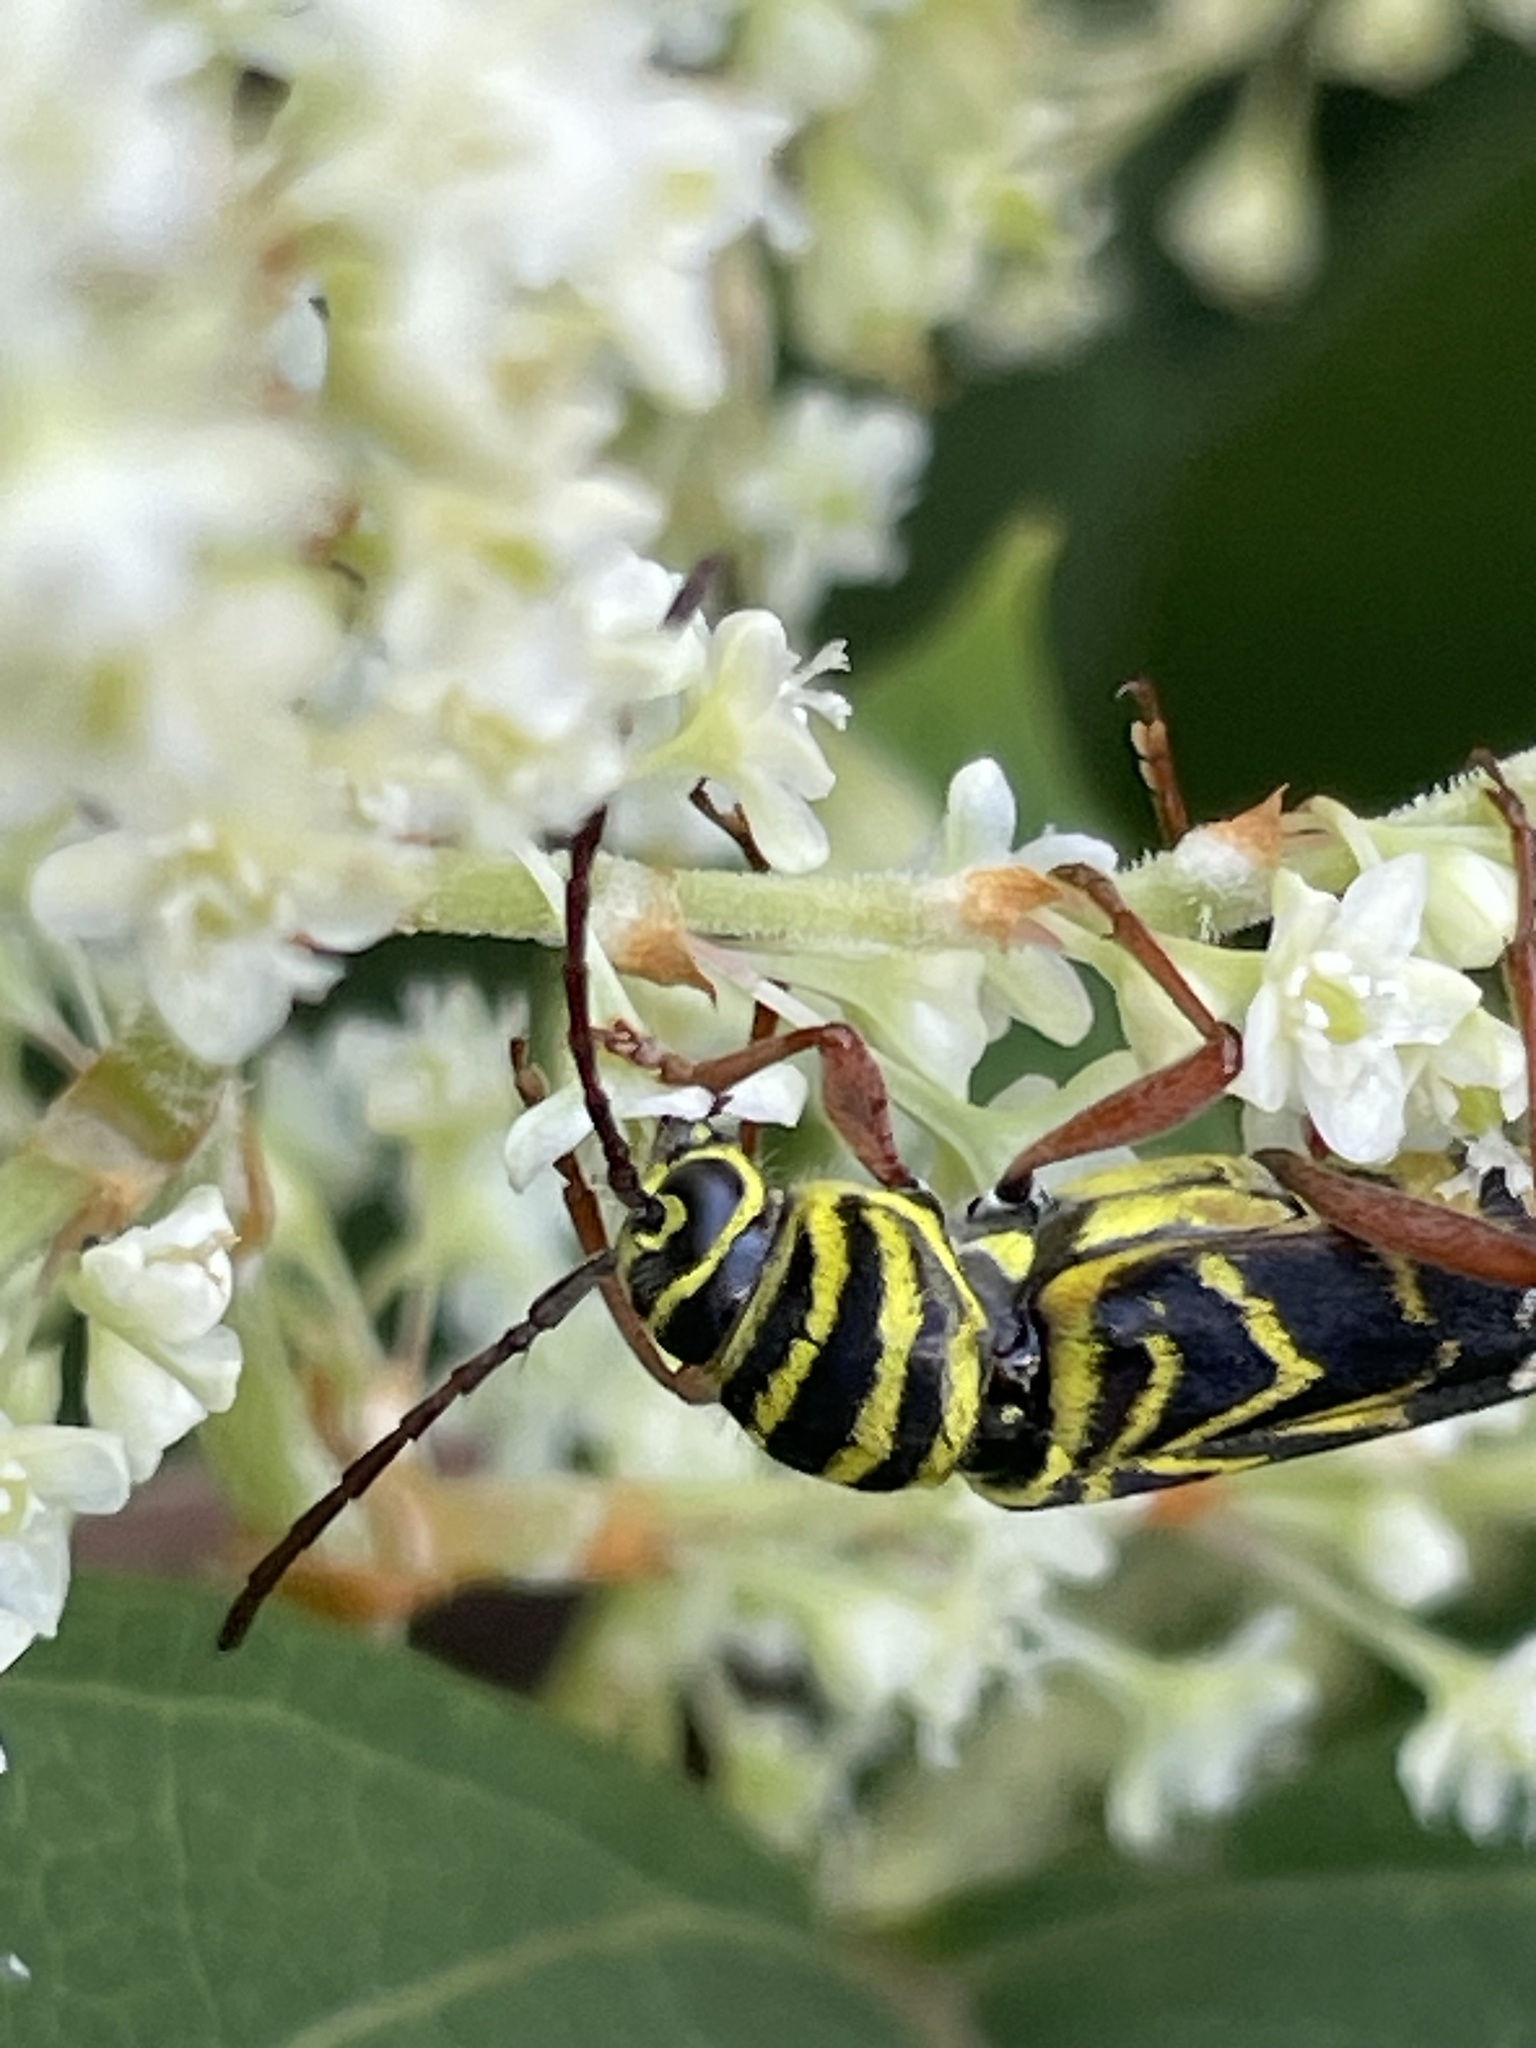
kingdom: Animalia
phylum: Arthropoda
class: Insecta
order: Coleoptera
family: Cerambycidae
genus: Megacyllene
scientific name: Megacyllene robiniae
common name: Locust borer
